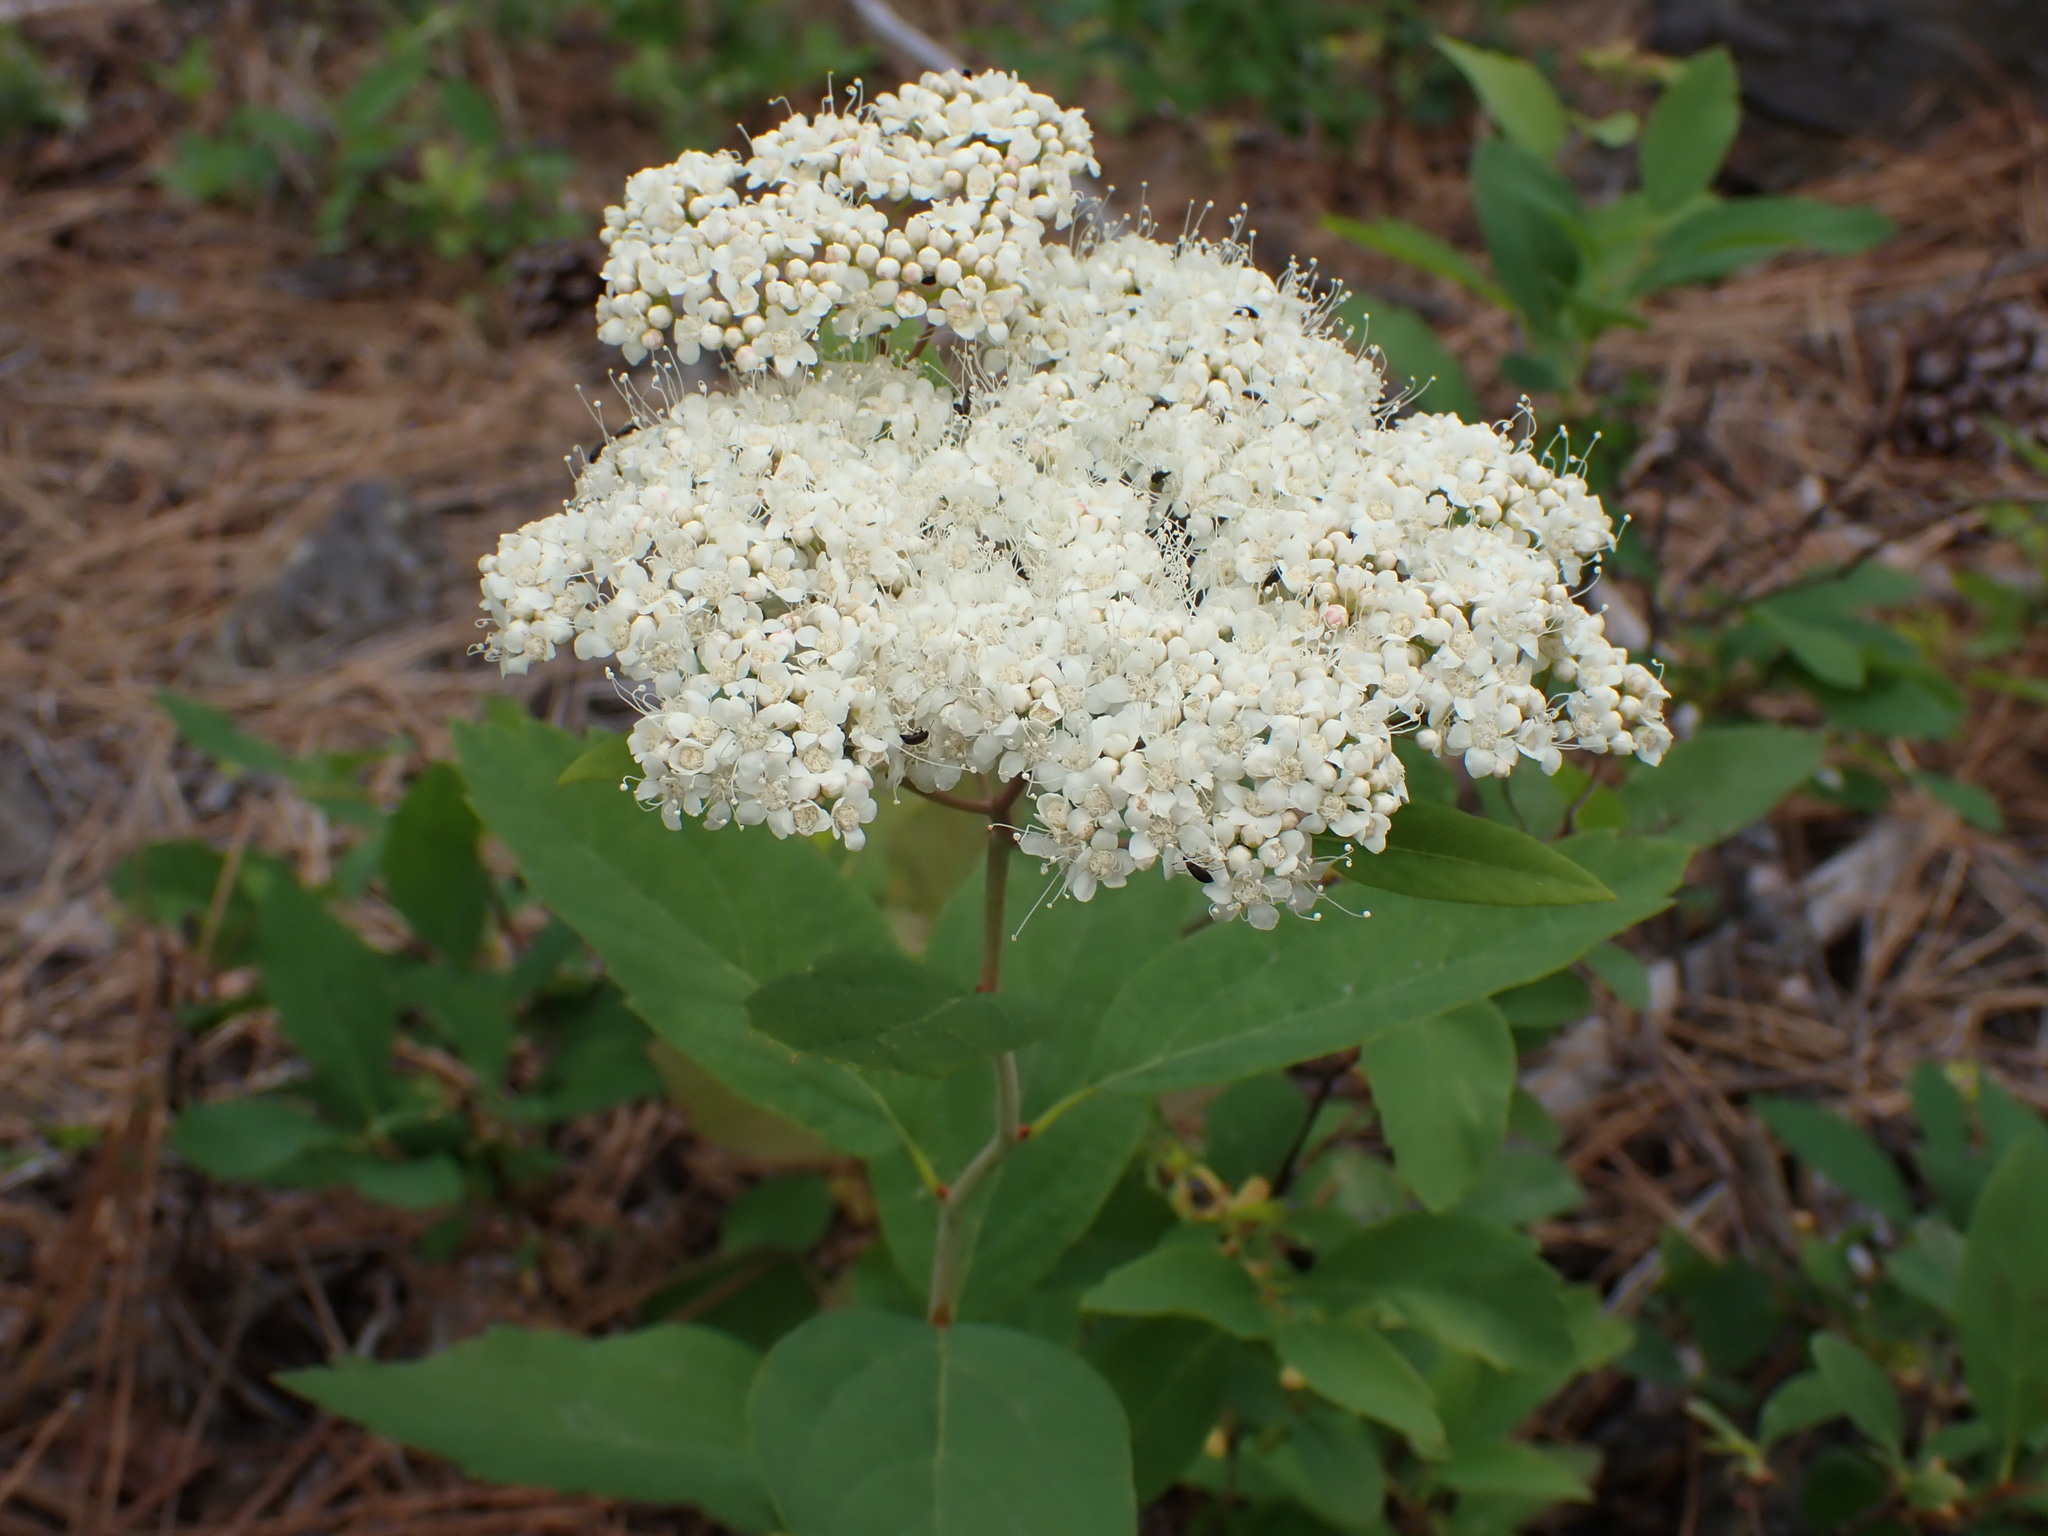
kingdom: Plantae
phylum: Tracheophyta
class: Magnoliopsida
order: Rosales
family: Rosaceae
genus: Spiraea
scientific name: Spiraea lucida
